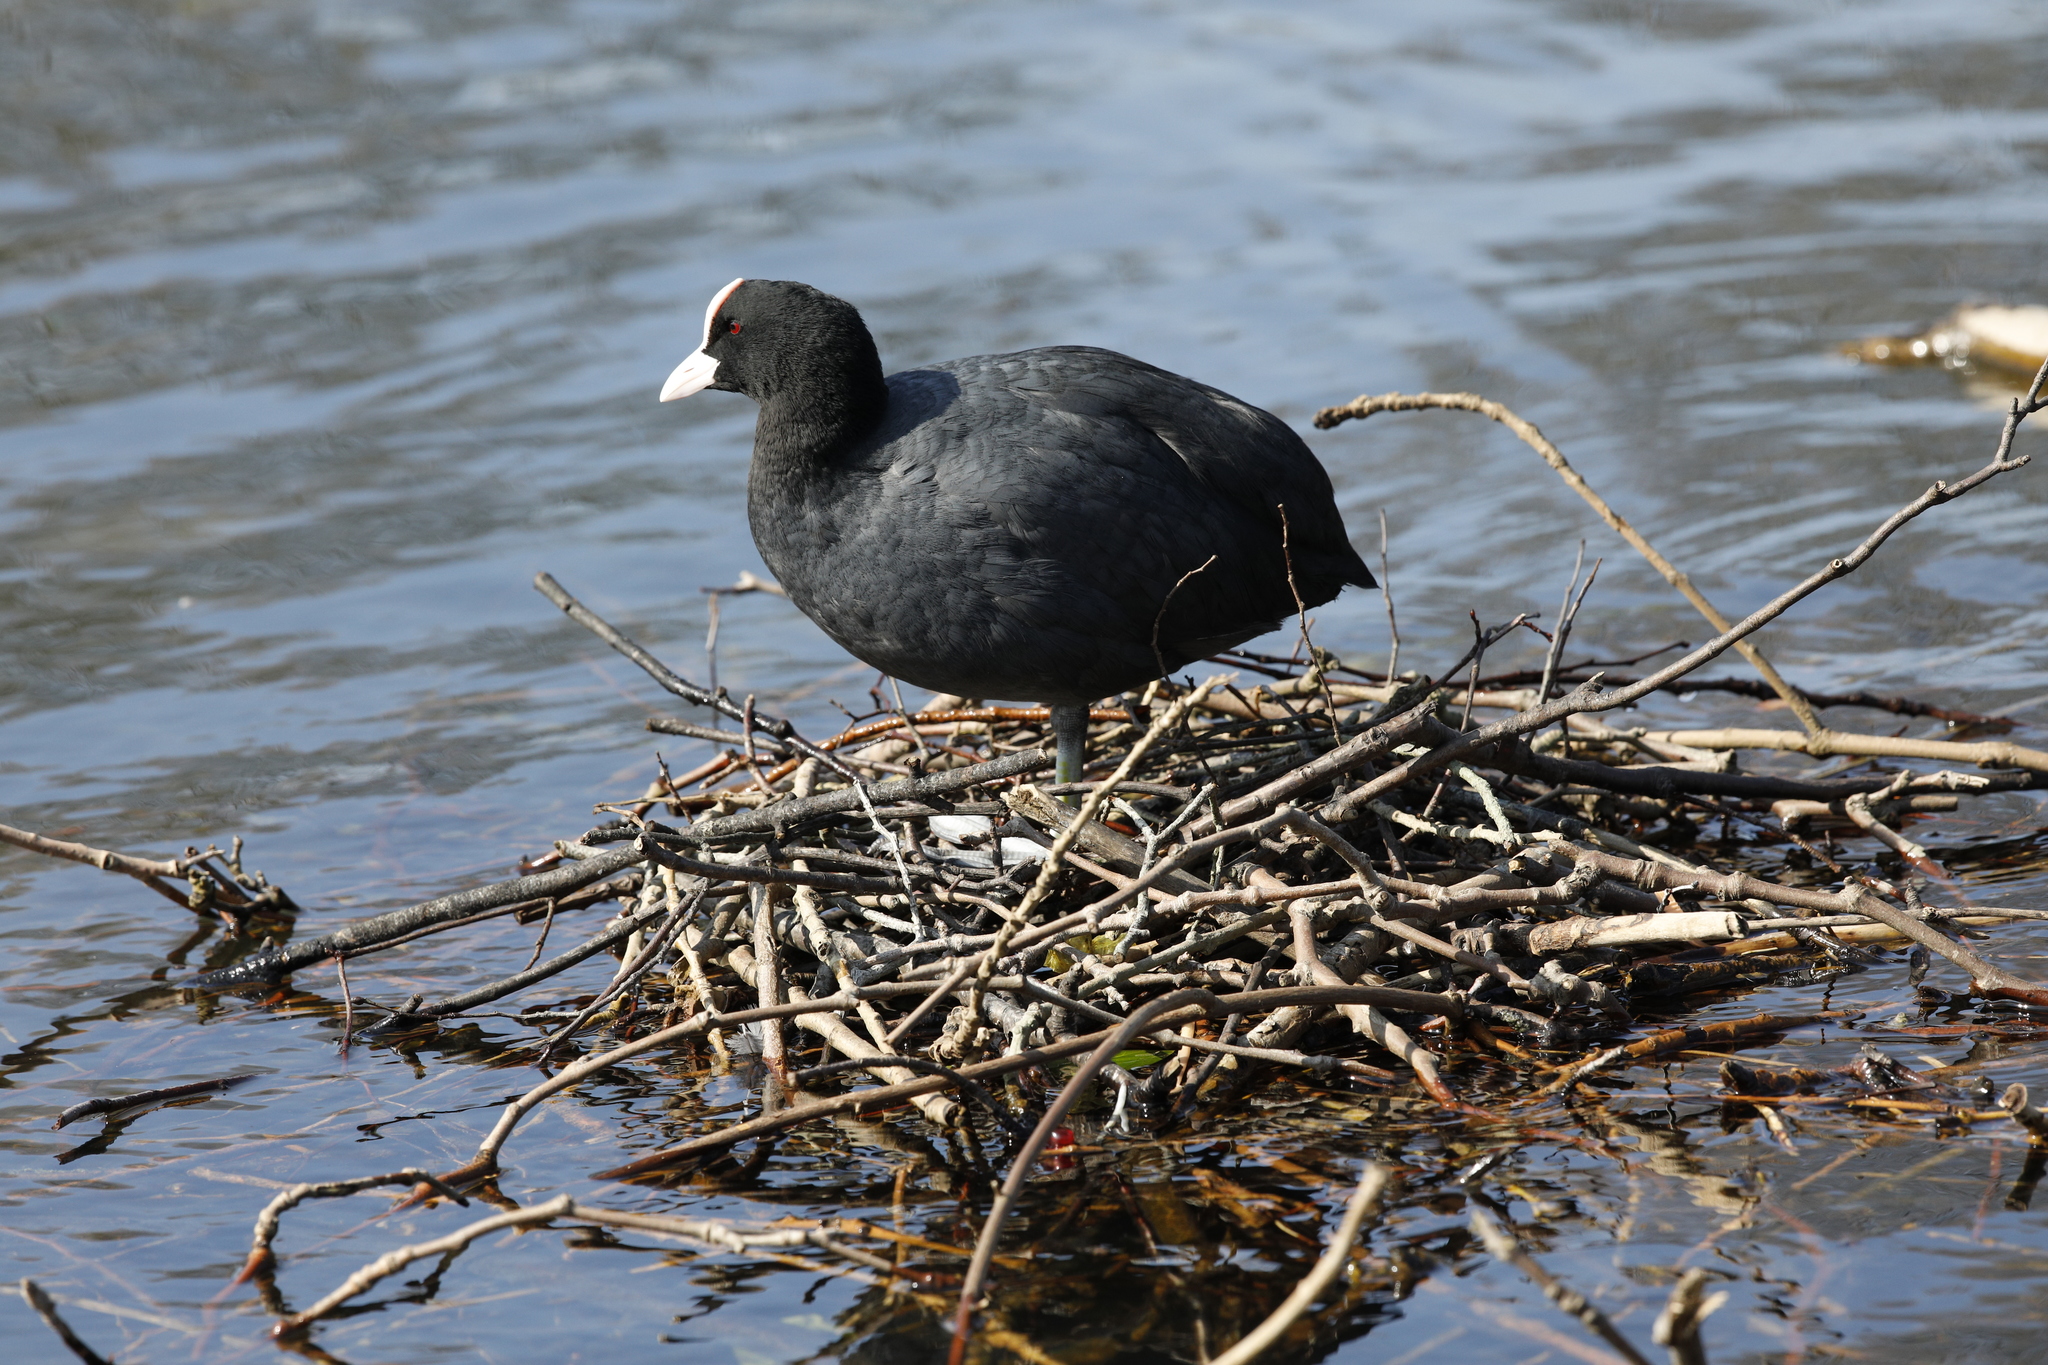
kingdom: Animalia
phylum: Chordata
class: Aves
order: Gruiformes
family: Rallidae
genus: Fulica
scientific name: Fulica atra
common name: Eurasian coot
